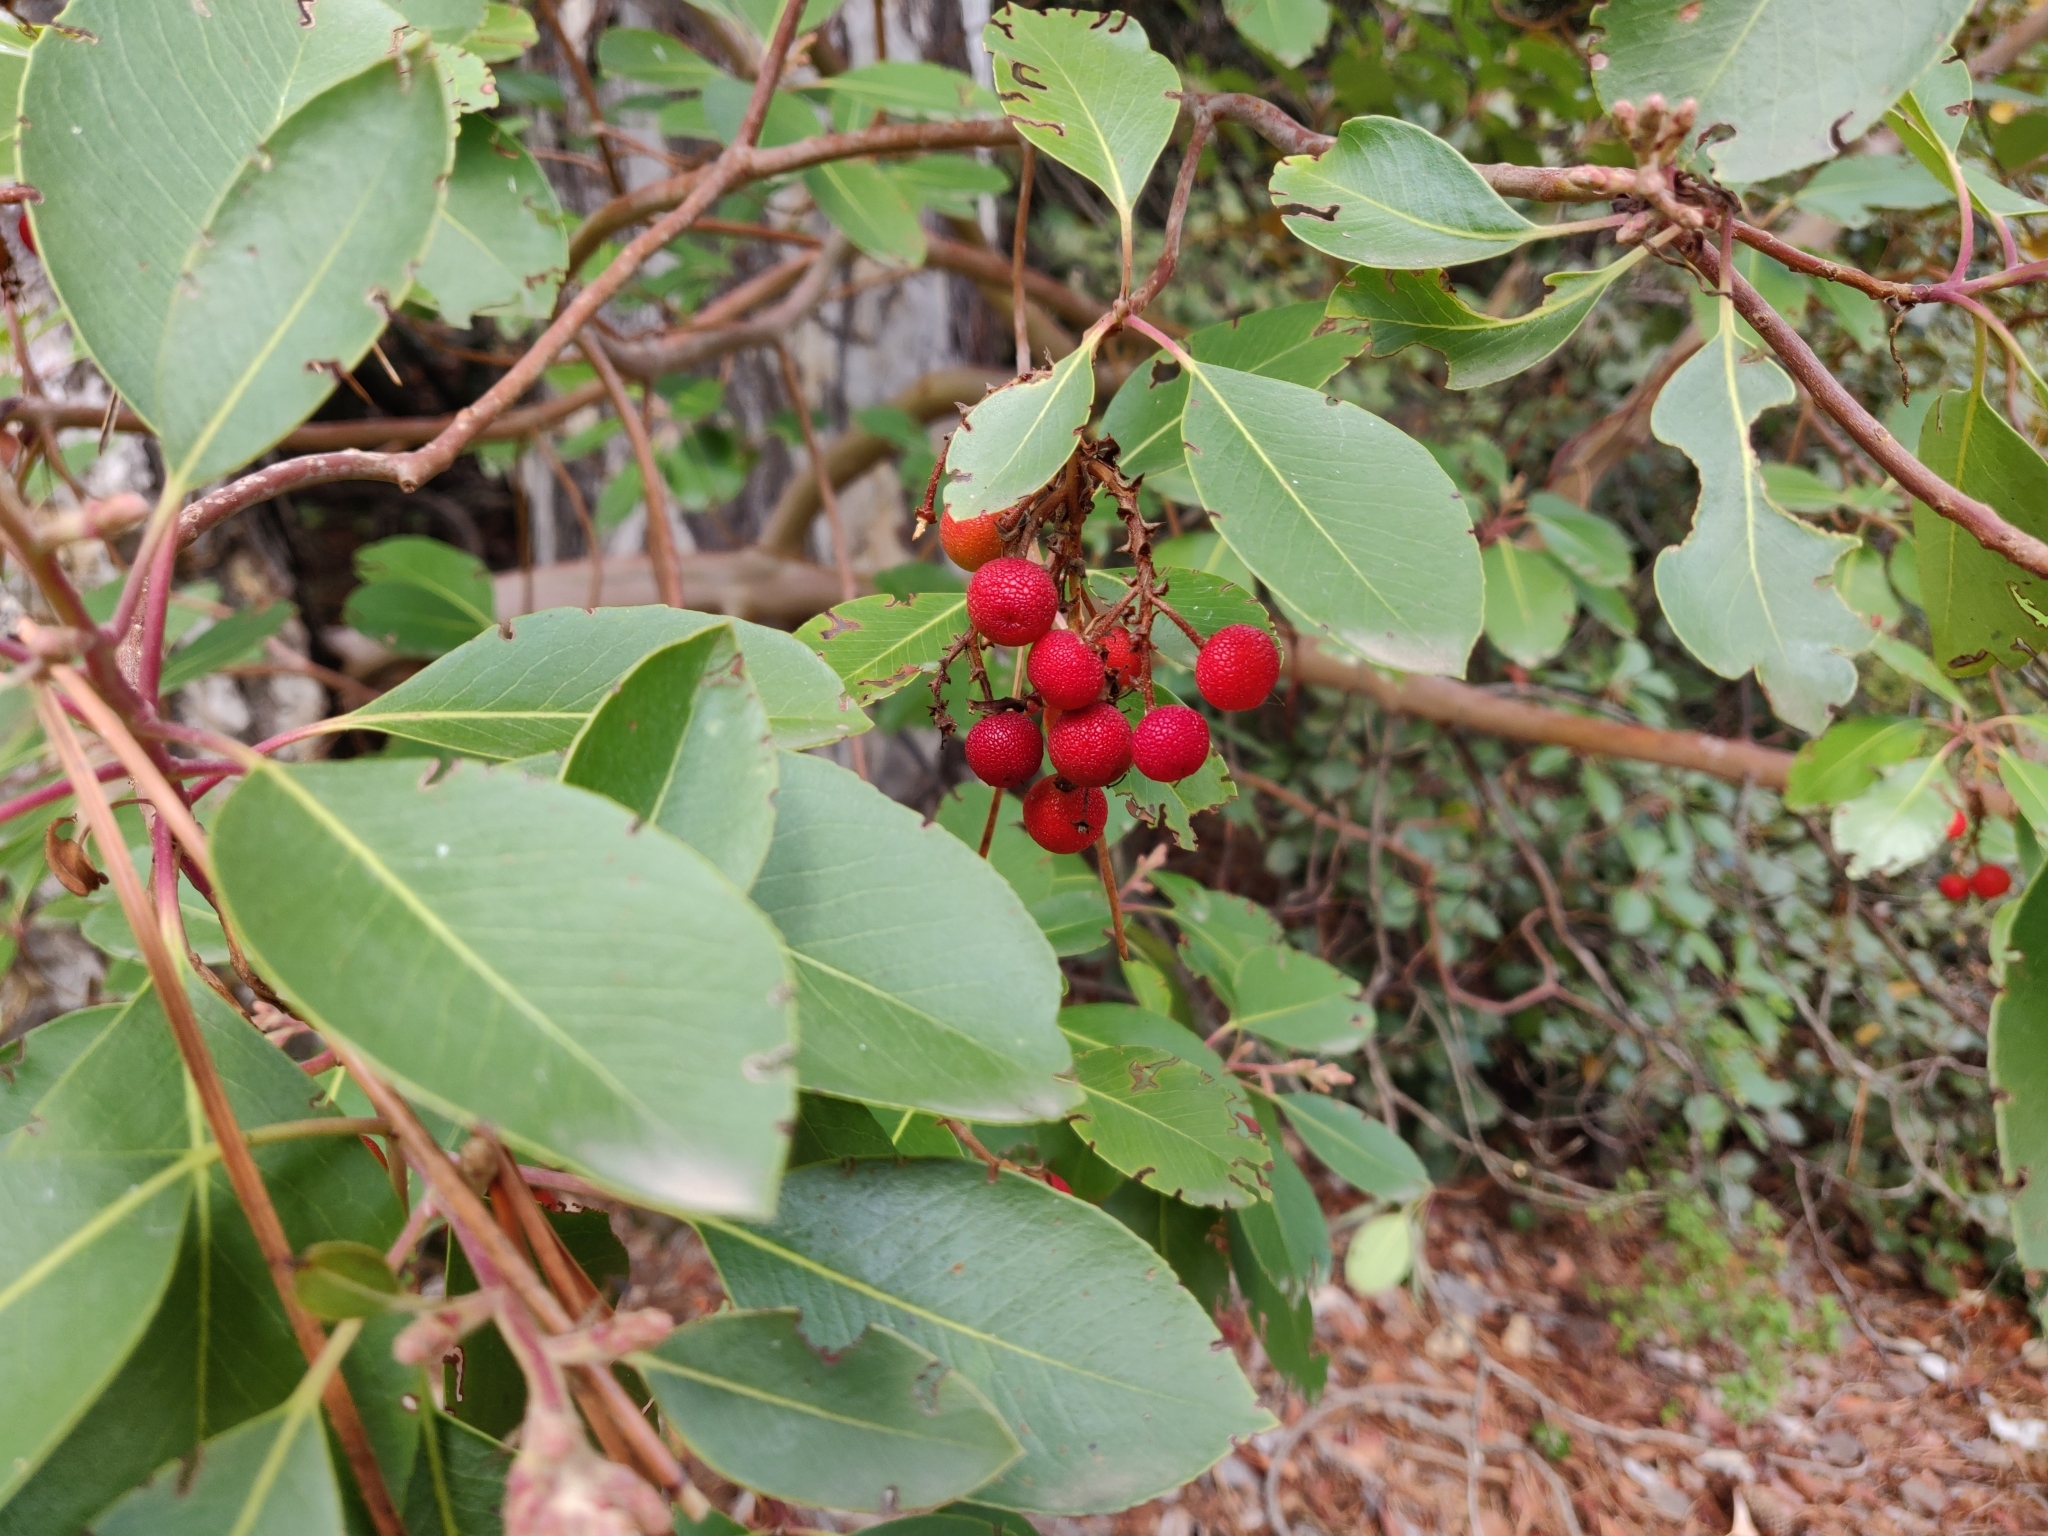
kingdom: Plantae
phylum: Tracheophyta
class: Magnoliopsida
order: Ericales
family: Ericaceae
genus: Arbutus
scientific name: Arbutus andrachne
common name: Greek strawberry tree
